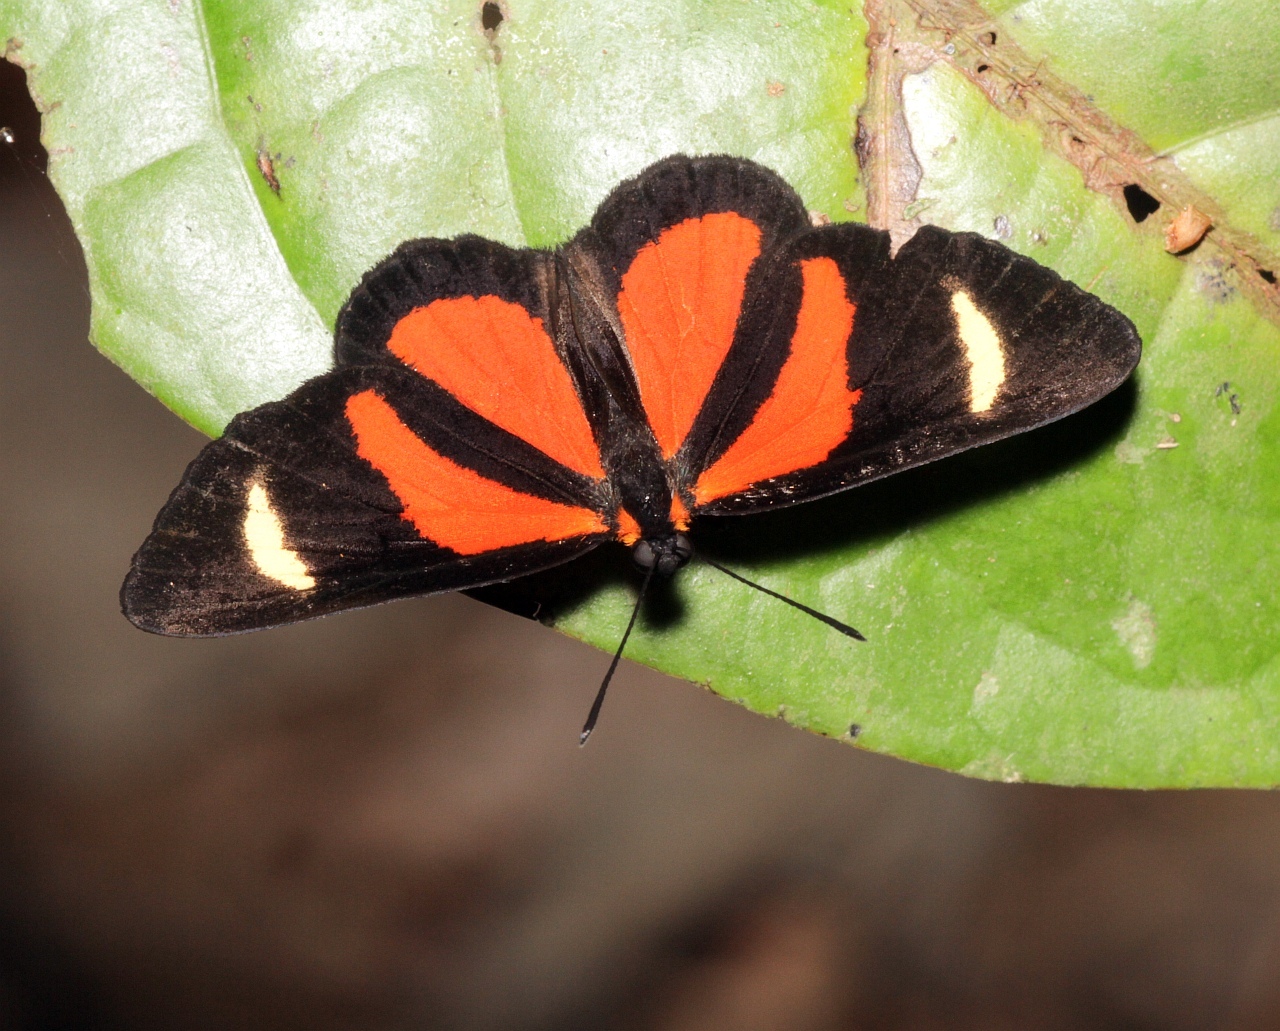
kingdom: Animalia
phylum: Arthropoda
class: Insecta
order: Lepidoptera
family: Riodinidae
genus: Cartea
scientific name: Cartea vitula
